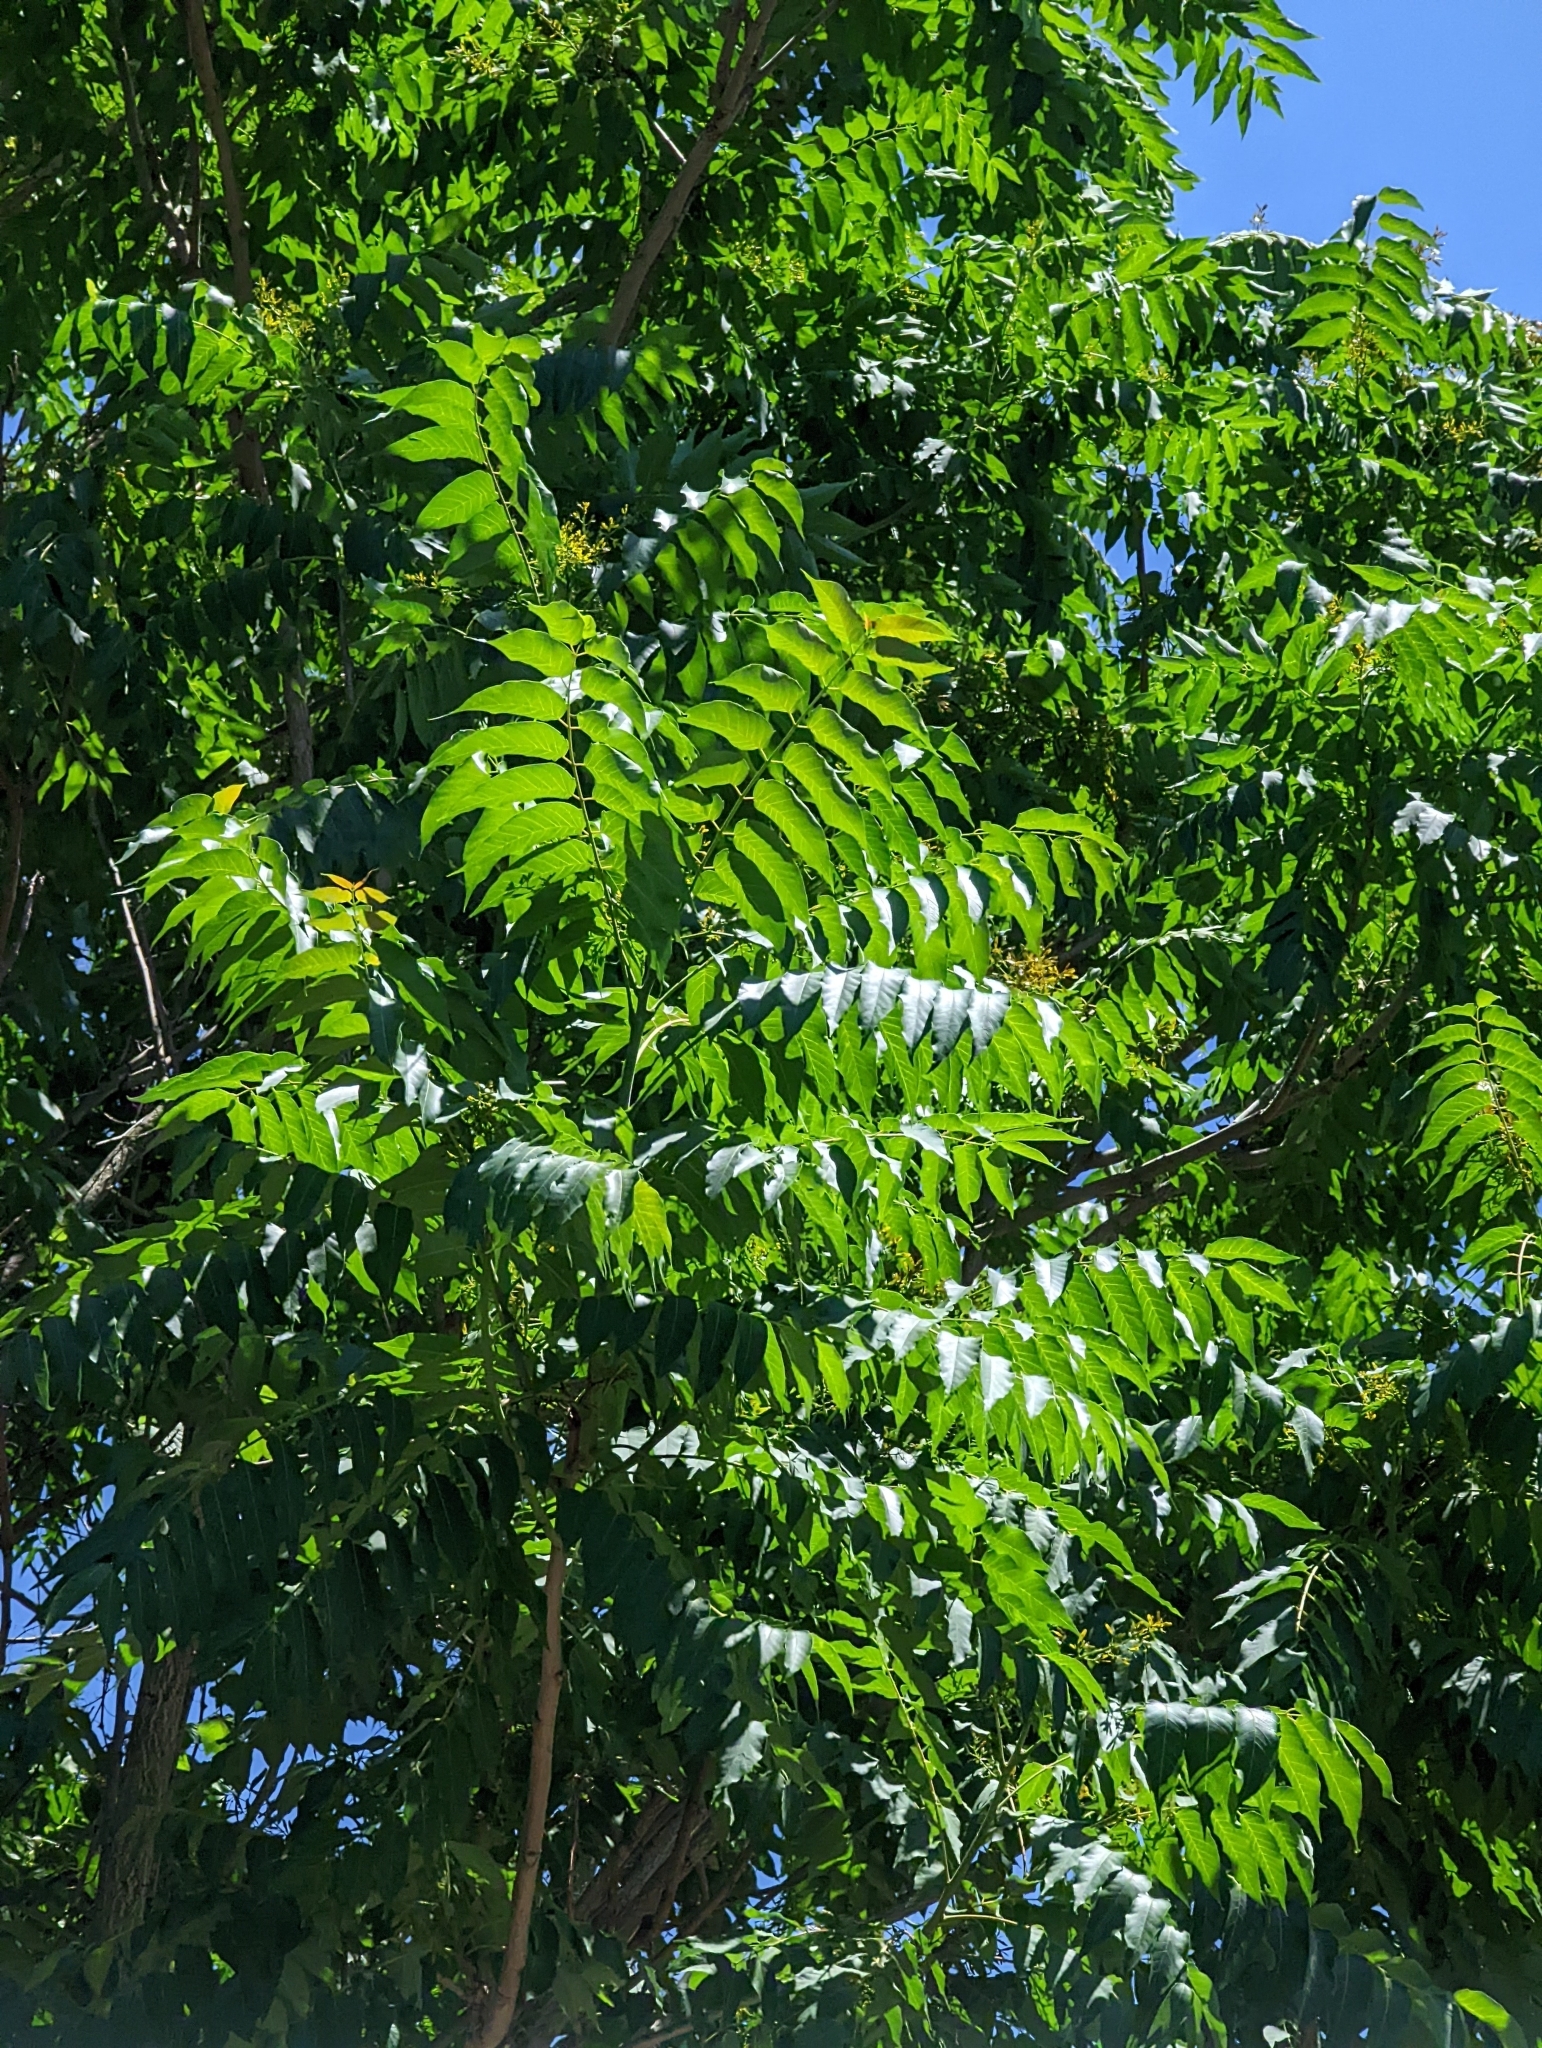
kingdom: Plantae
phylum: Tracheophyta
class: Magnoliopsida
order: Sapindales
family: Simaroubaceae
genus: Ailanthus
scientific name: Ailanthus altissima
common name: Tree-of-heaven
